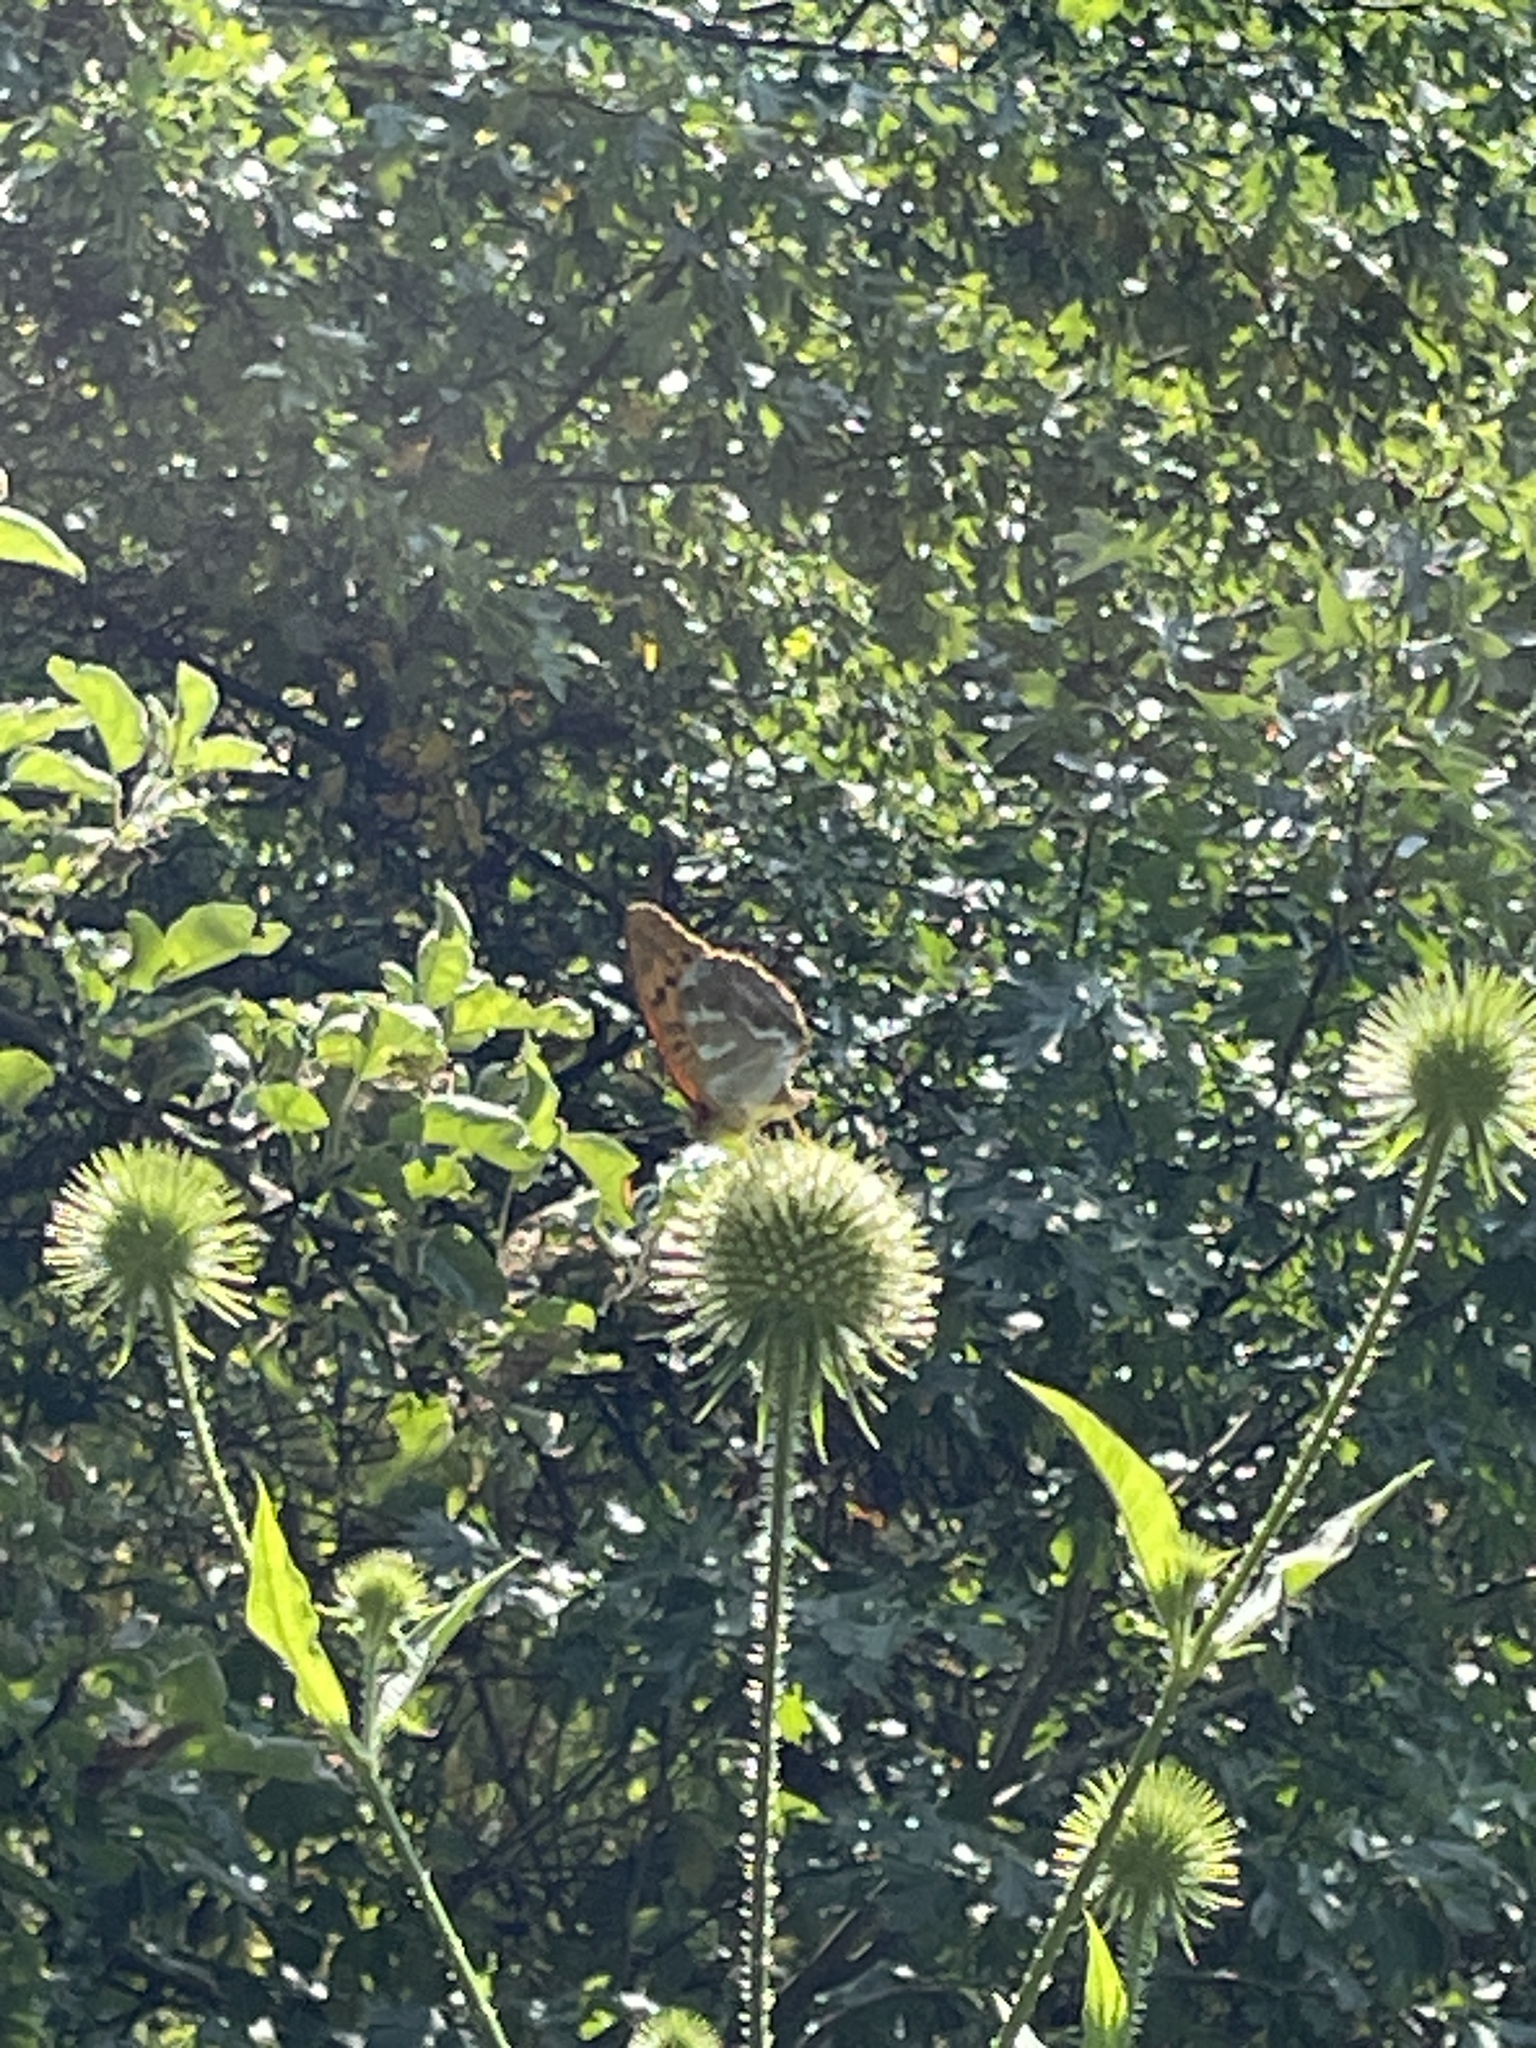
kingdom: Animalia
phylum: Arthropoda
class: Insecta
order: Lepidoptera
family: Nymphalidae
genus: Argynnis
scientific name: Argynnis paphia
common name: Silver-washed fritillary
